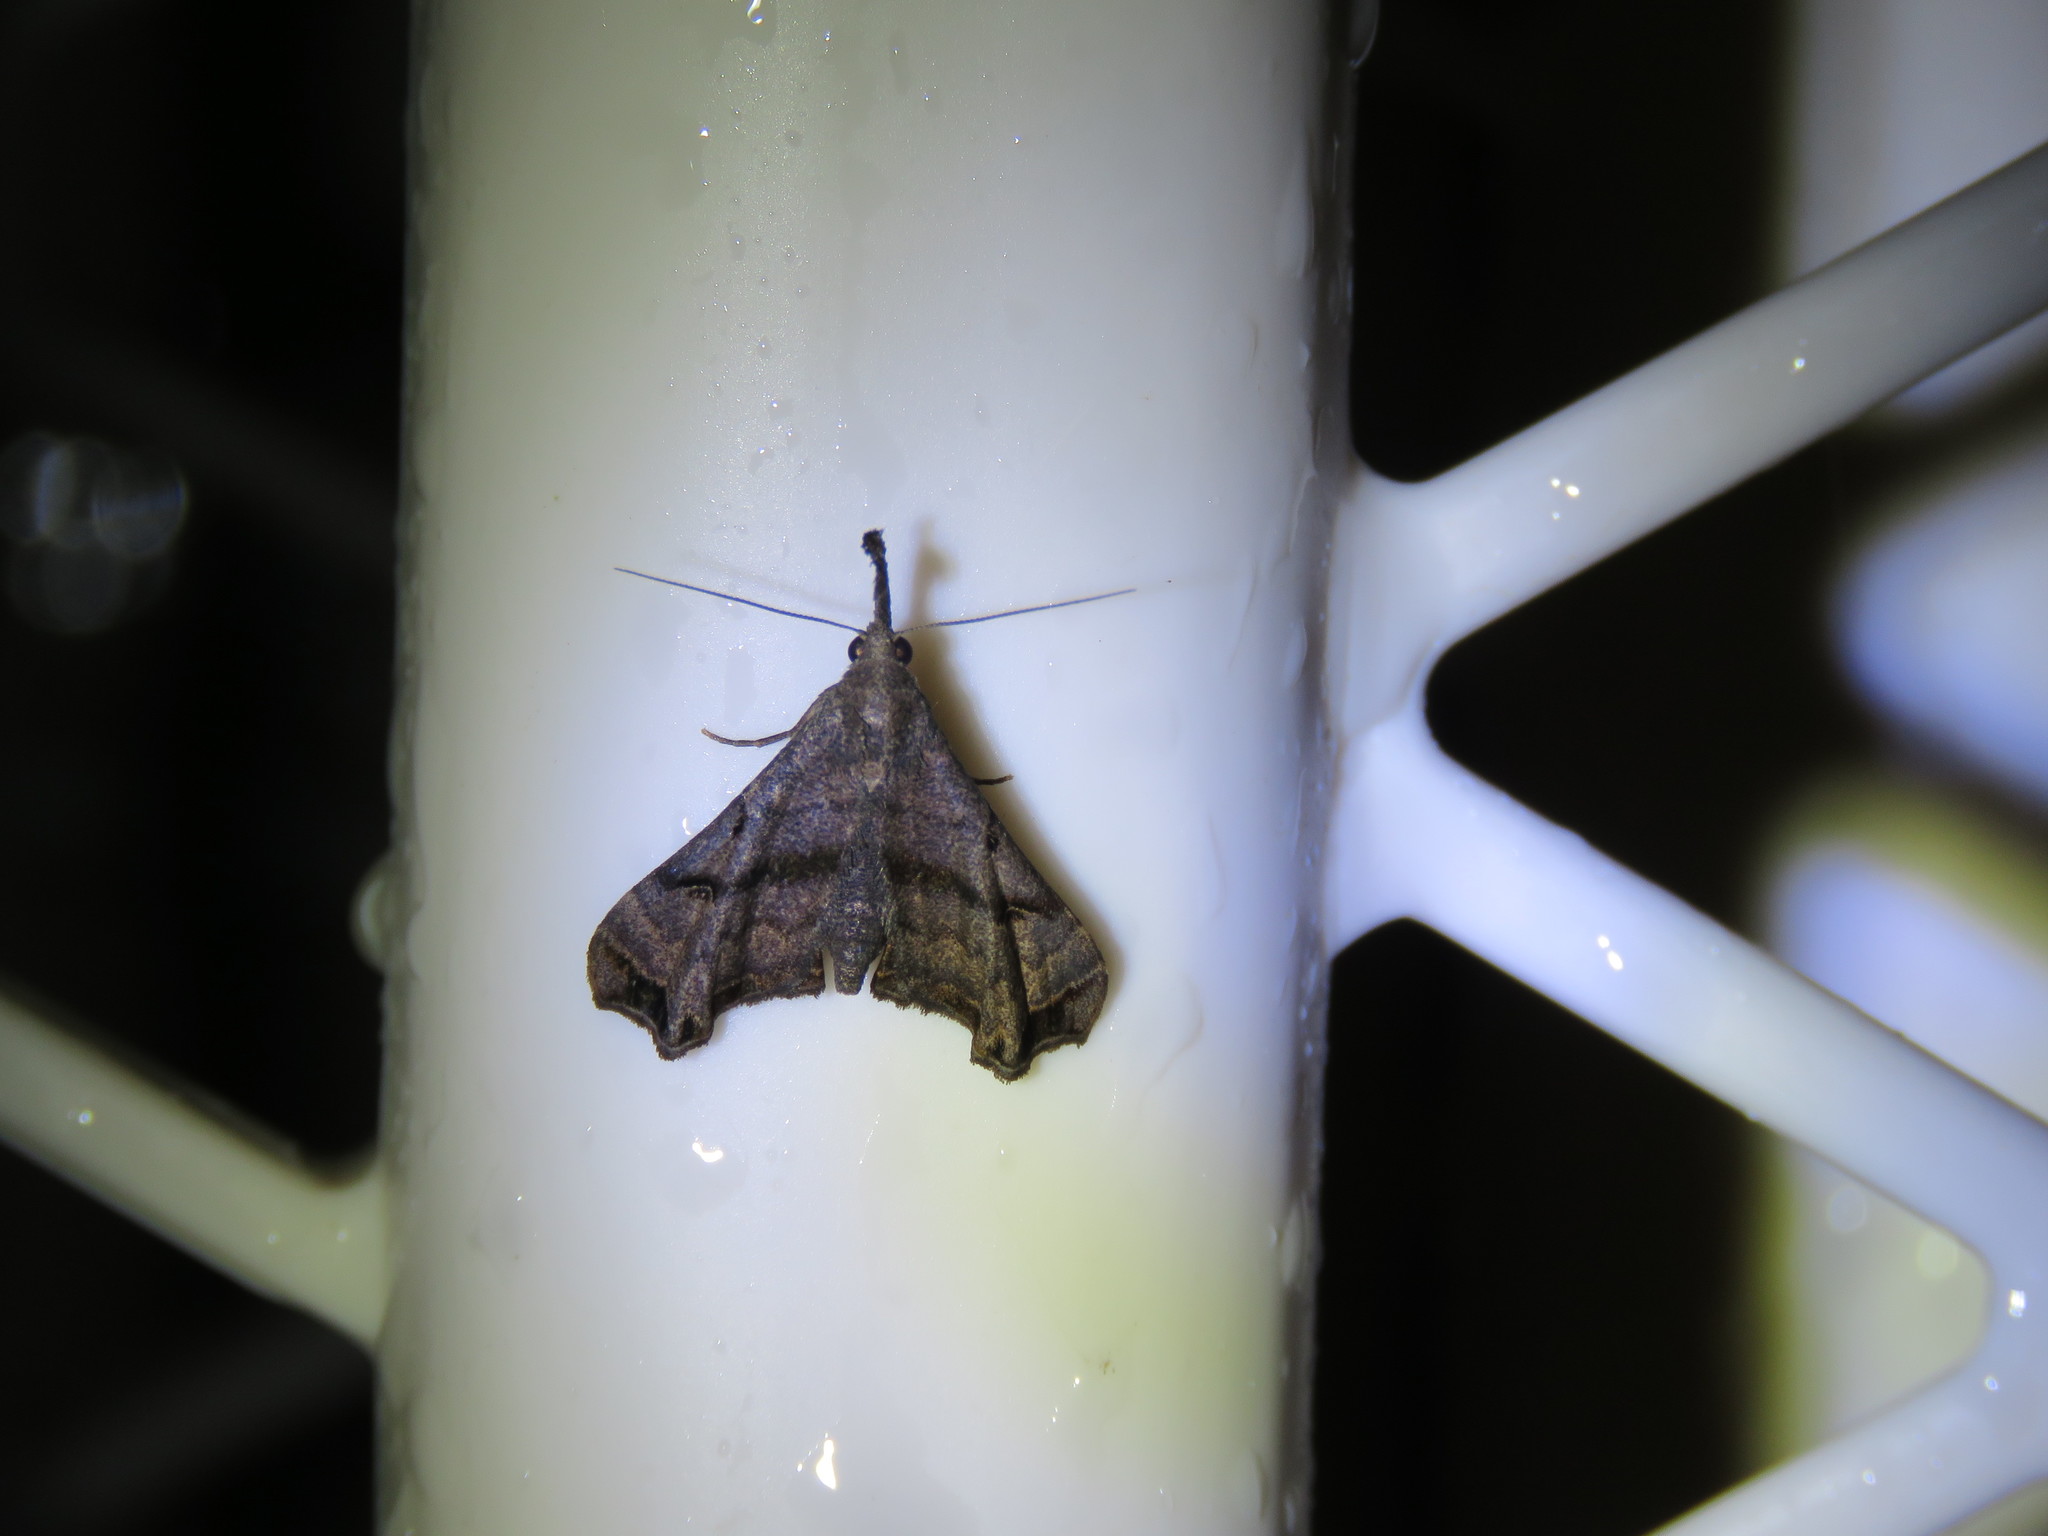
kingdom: Animalia
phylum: Arthropoda
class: Insecta
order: Lepidoptera
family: Erebidae
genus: Palthis
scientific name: Palthis asopialis
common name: Faint-spotted palthis moth
